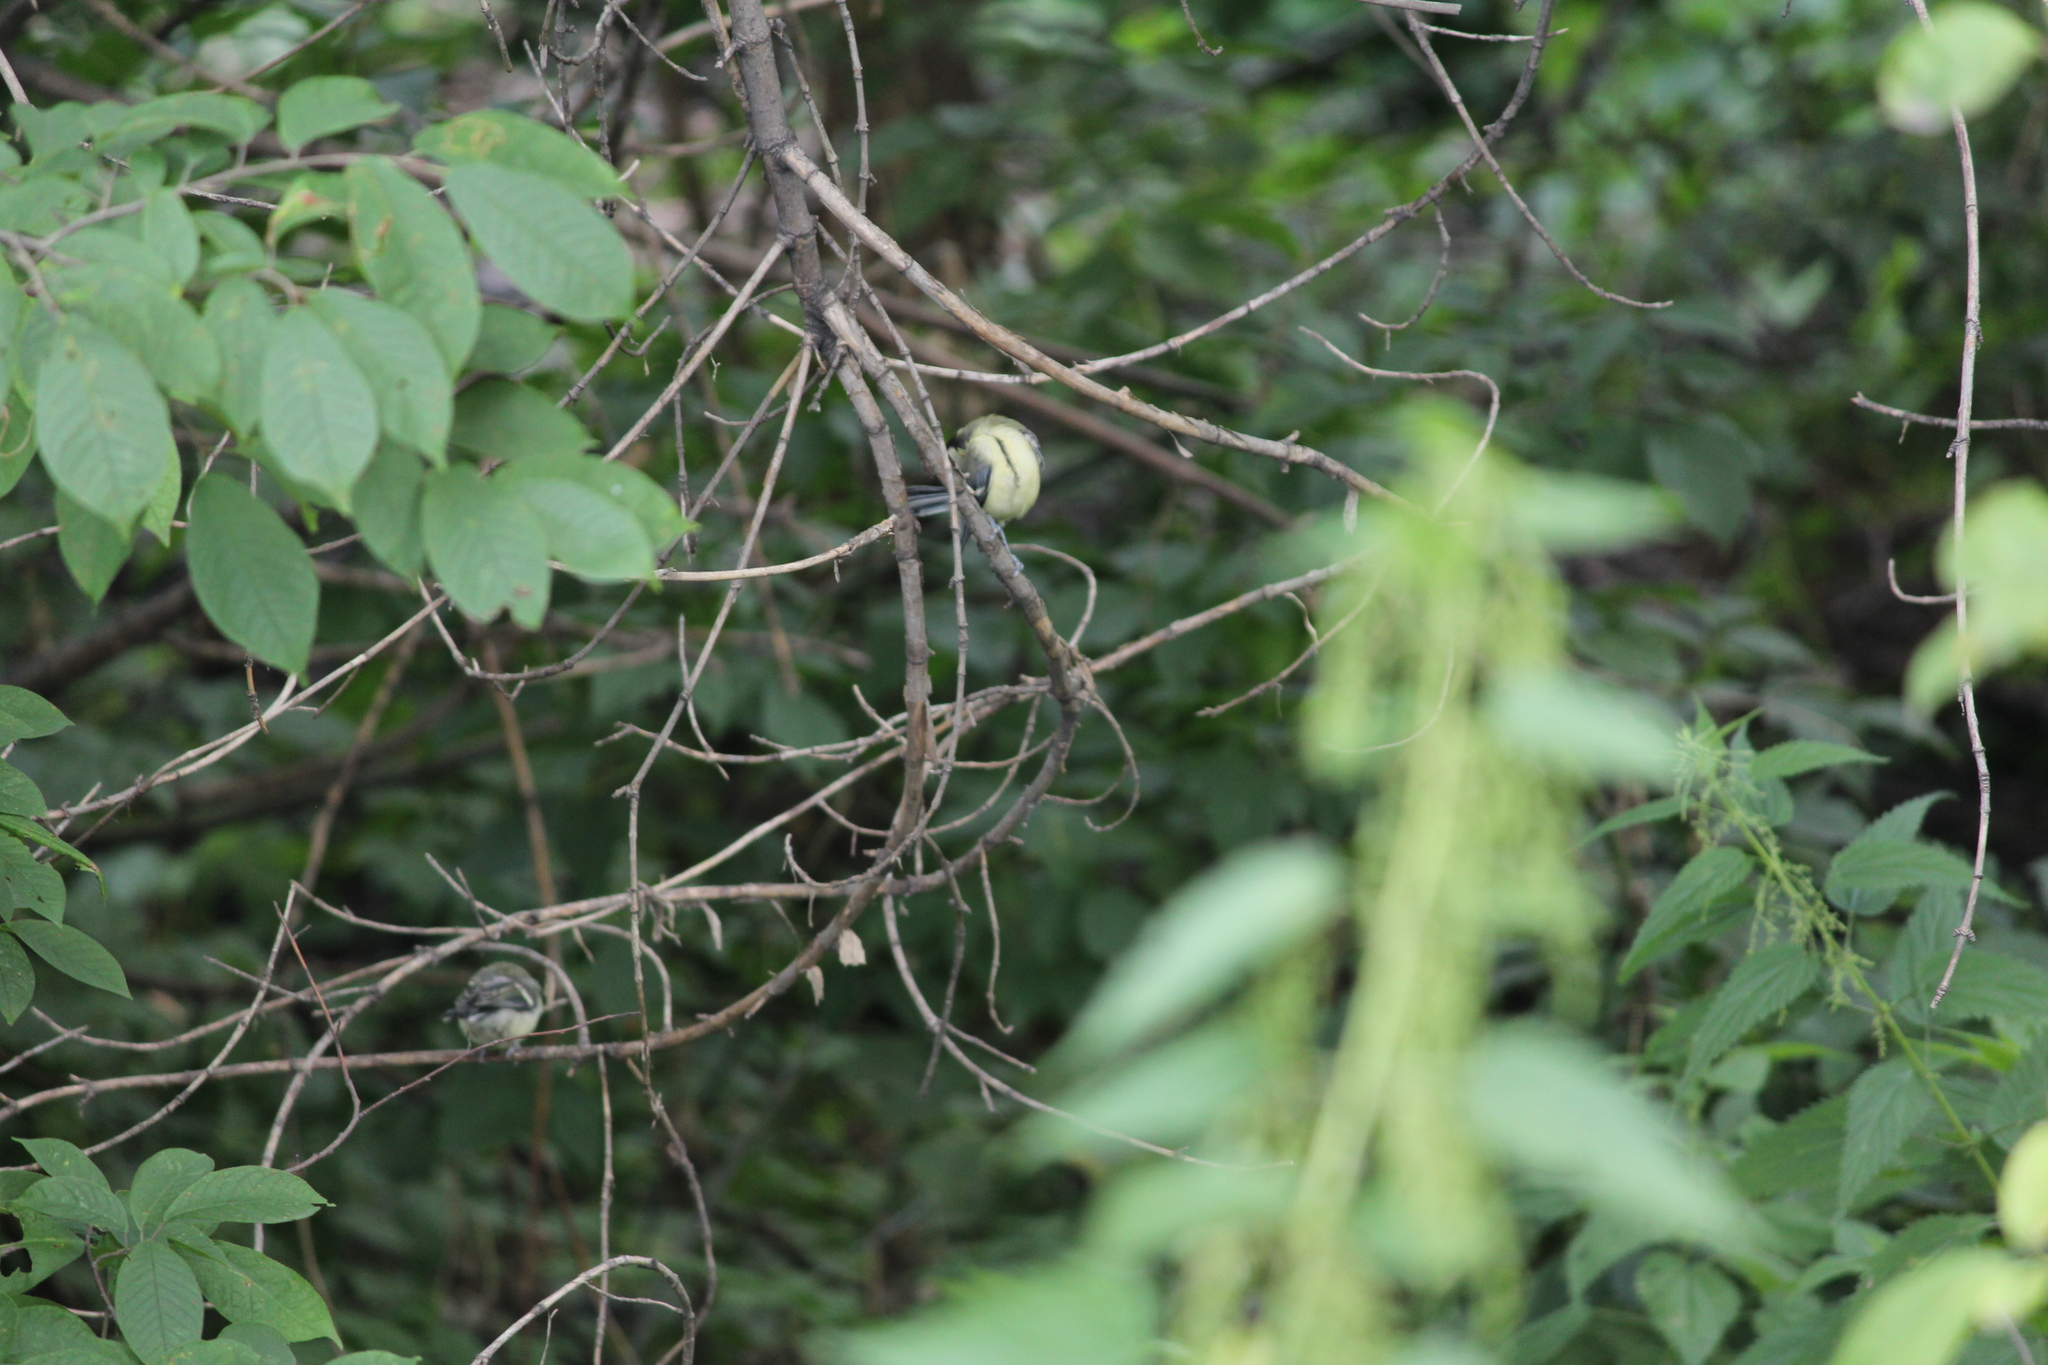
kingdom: Animalia
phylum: Chordata
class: Aves
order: Passeriformes
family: Paridae
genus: Parus
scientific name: Parus major
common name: Great tit
